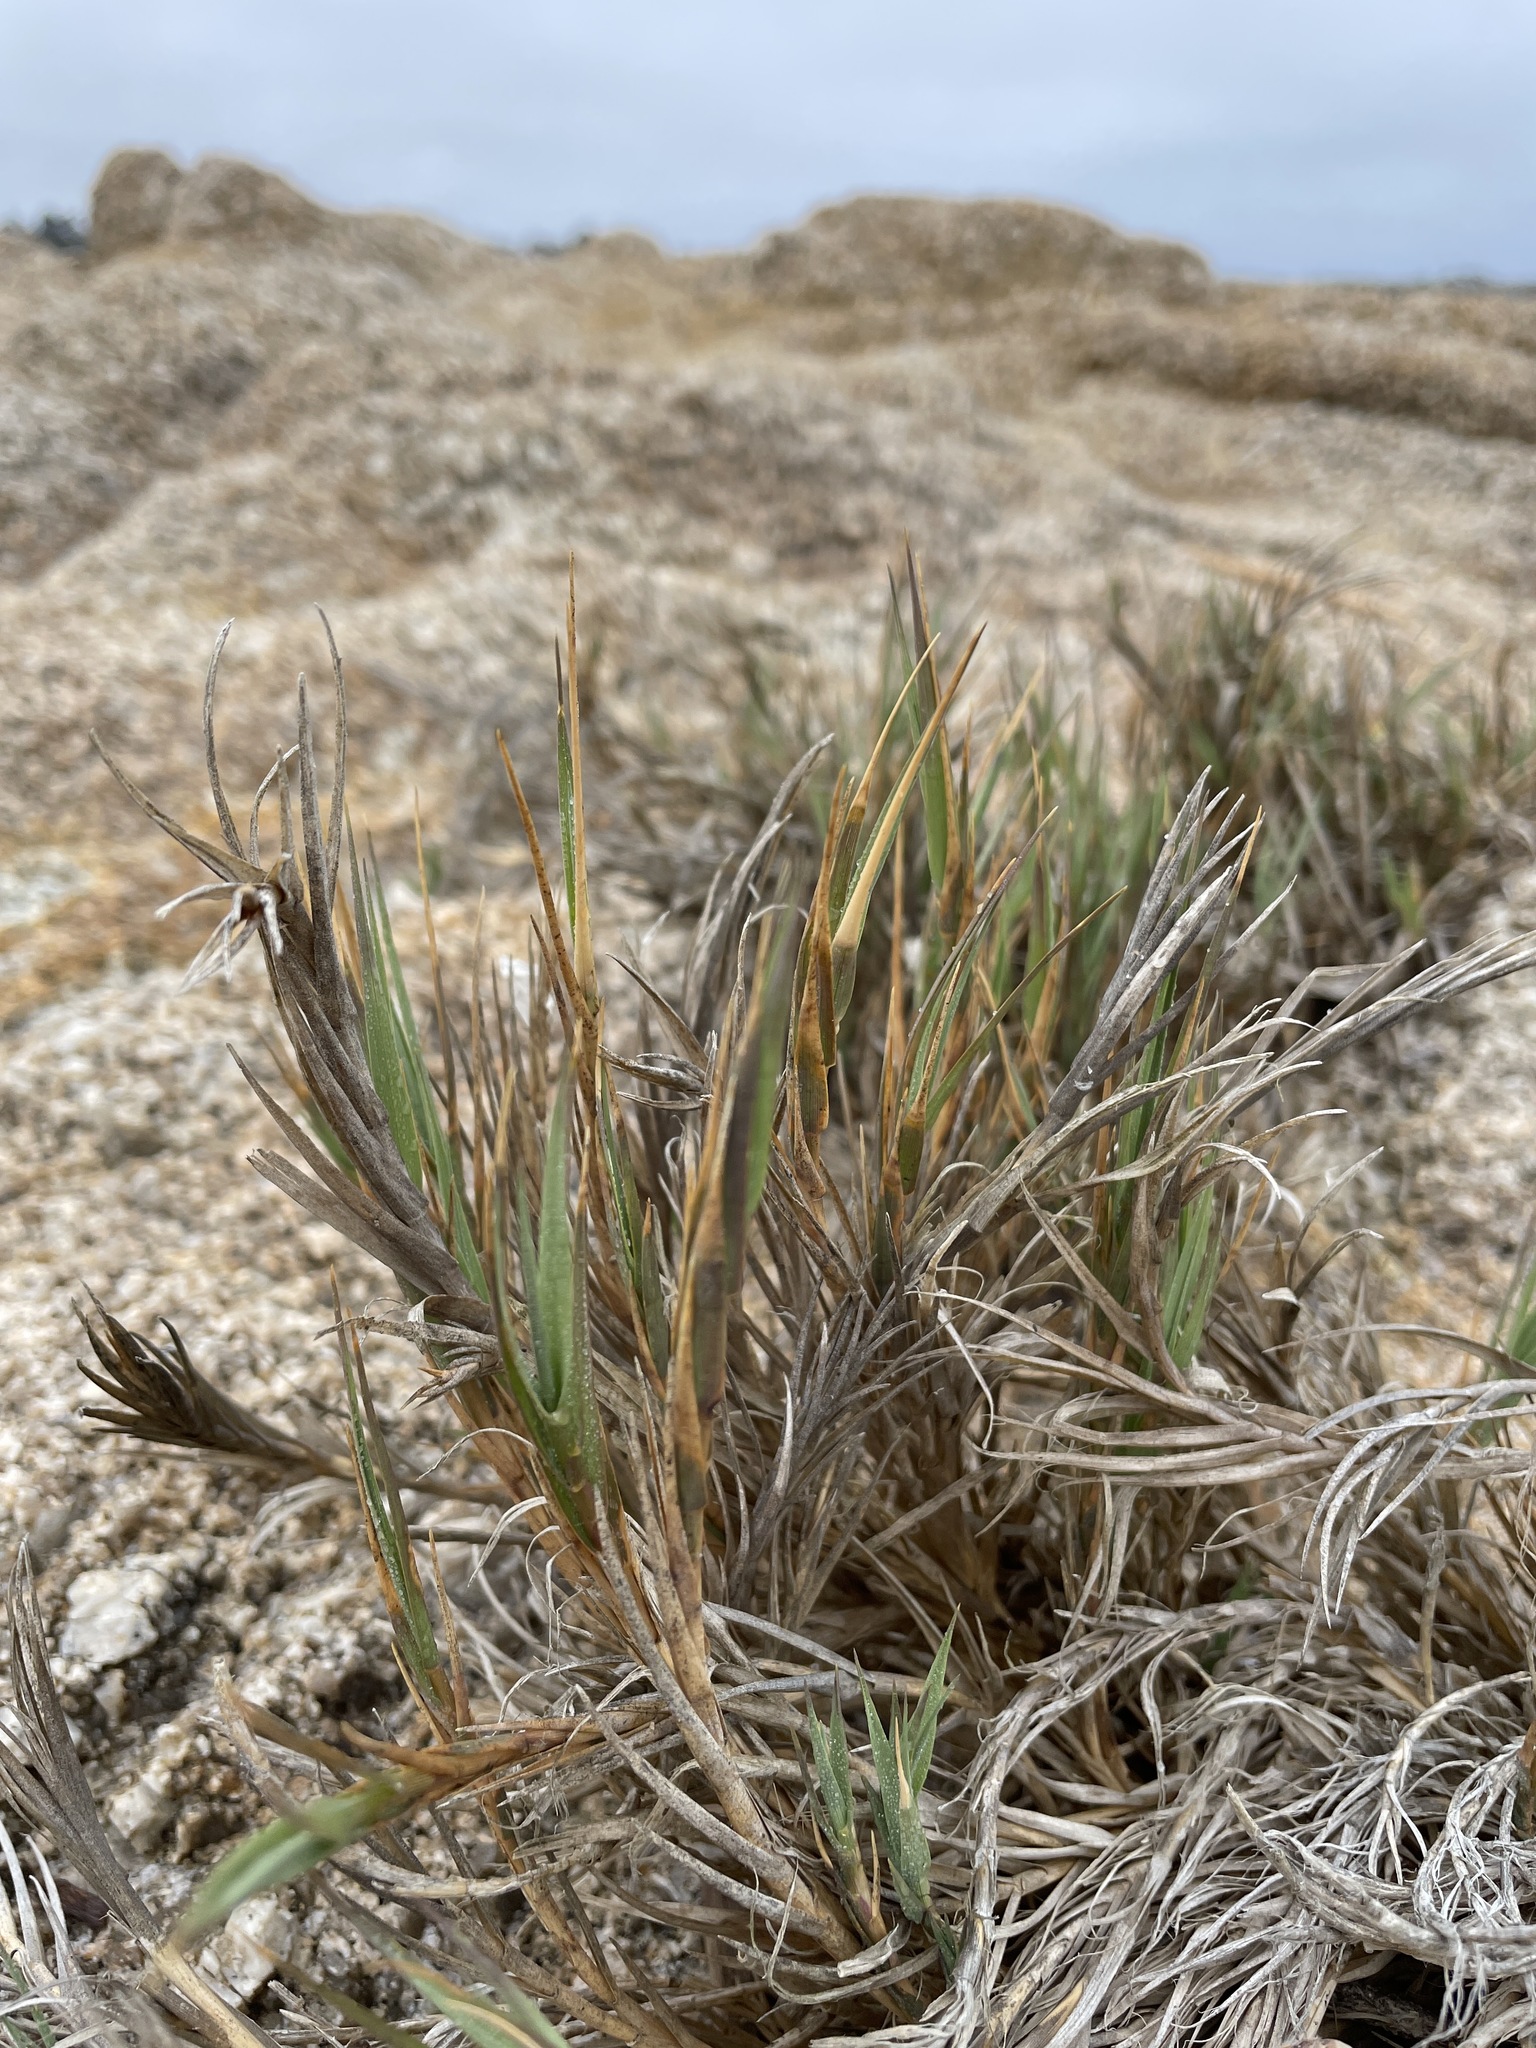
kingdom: Plantae
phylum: Tracheophyta
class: Liliopsida
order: Poales
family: Poaceae
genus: Distichlis
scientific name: Distichlis spicata
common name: Saltgrass
